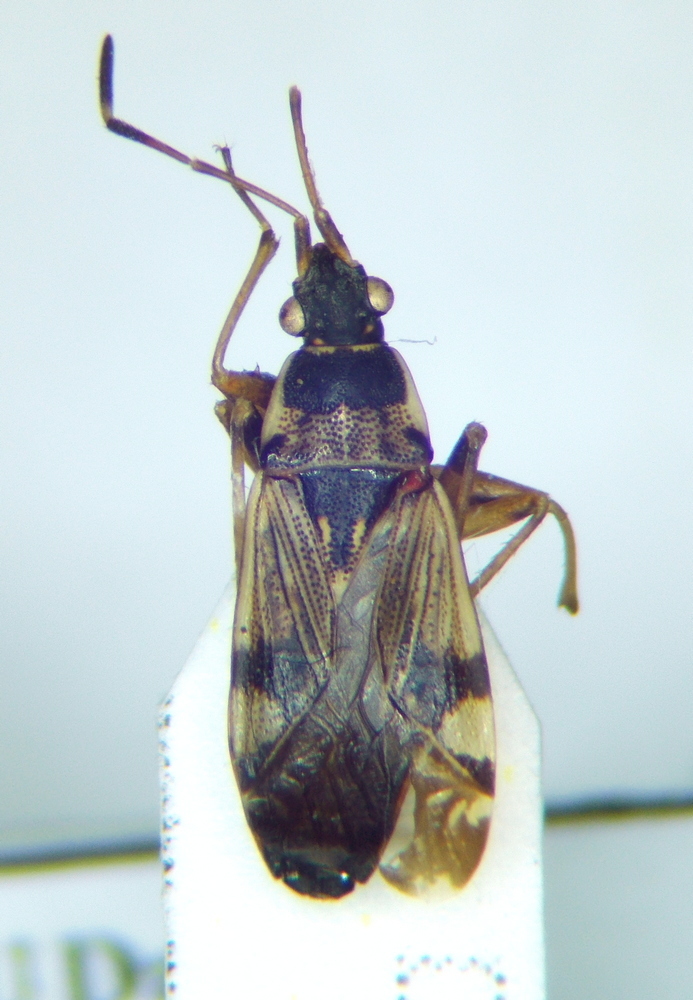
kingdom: Animalia
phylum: Arthropoda
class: Insecta
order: Hemiptera
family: Rhyparochromidae
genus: Beosus
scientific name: Beosus maritimus
